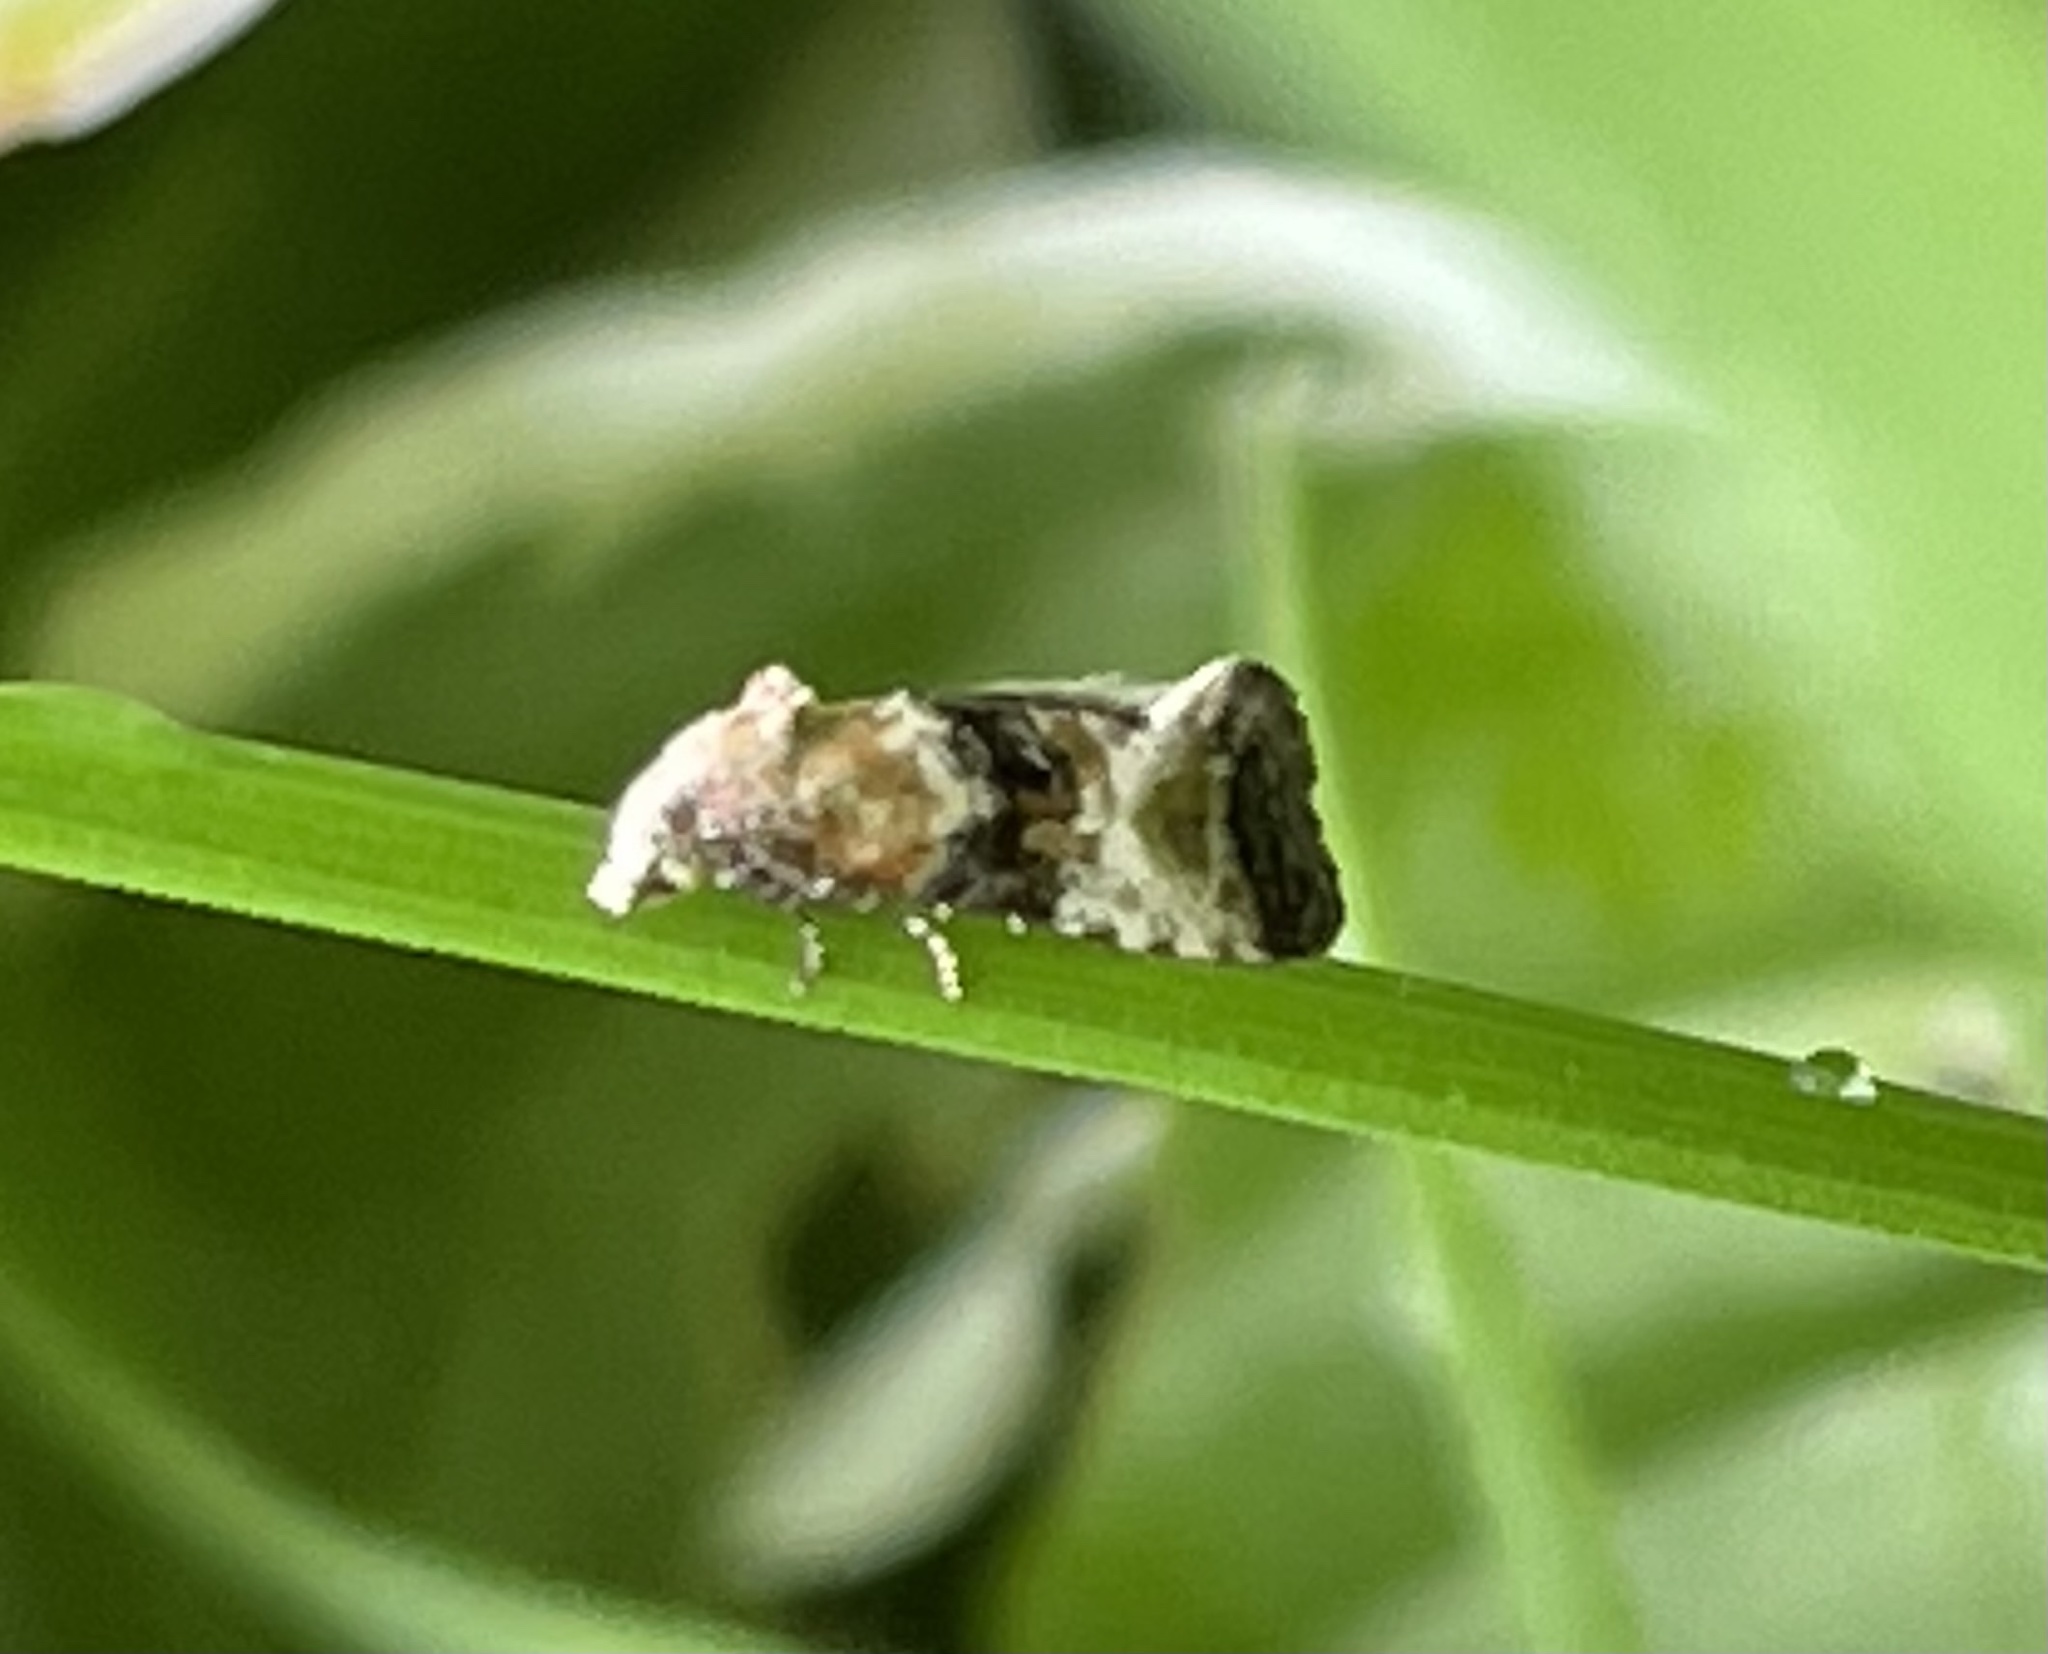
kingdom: Animalia
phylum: Arthropoda
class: Insecta
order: Lepidoptera
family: Tortricidae
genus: Eupoecilia
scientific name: Eupoecilia angustana
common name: Marbled conch
